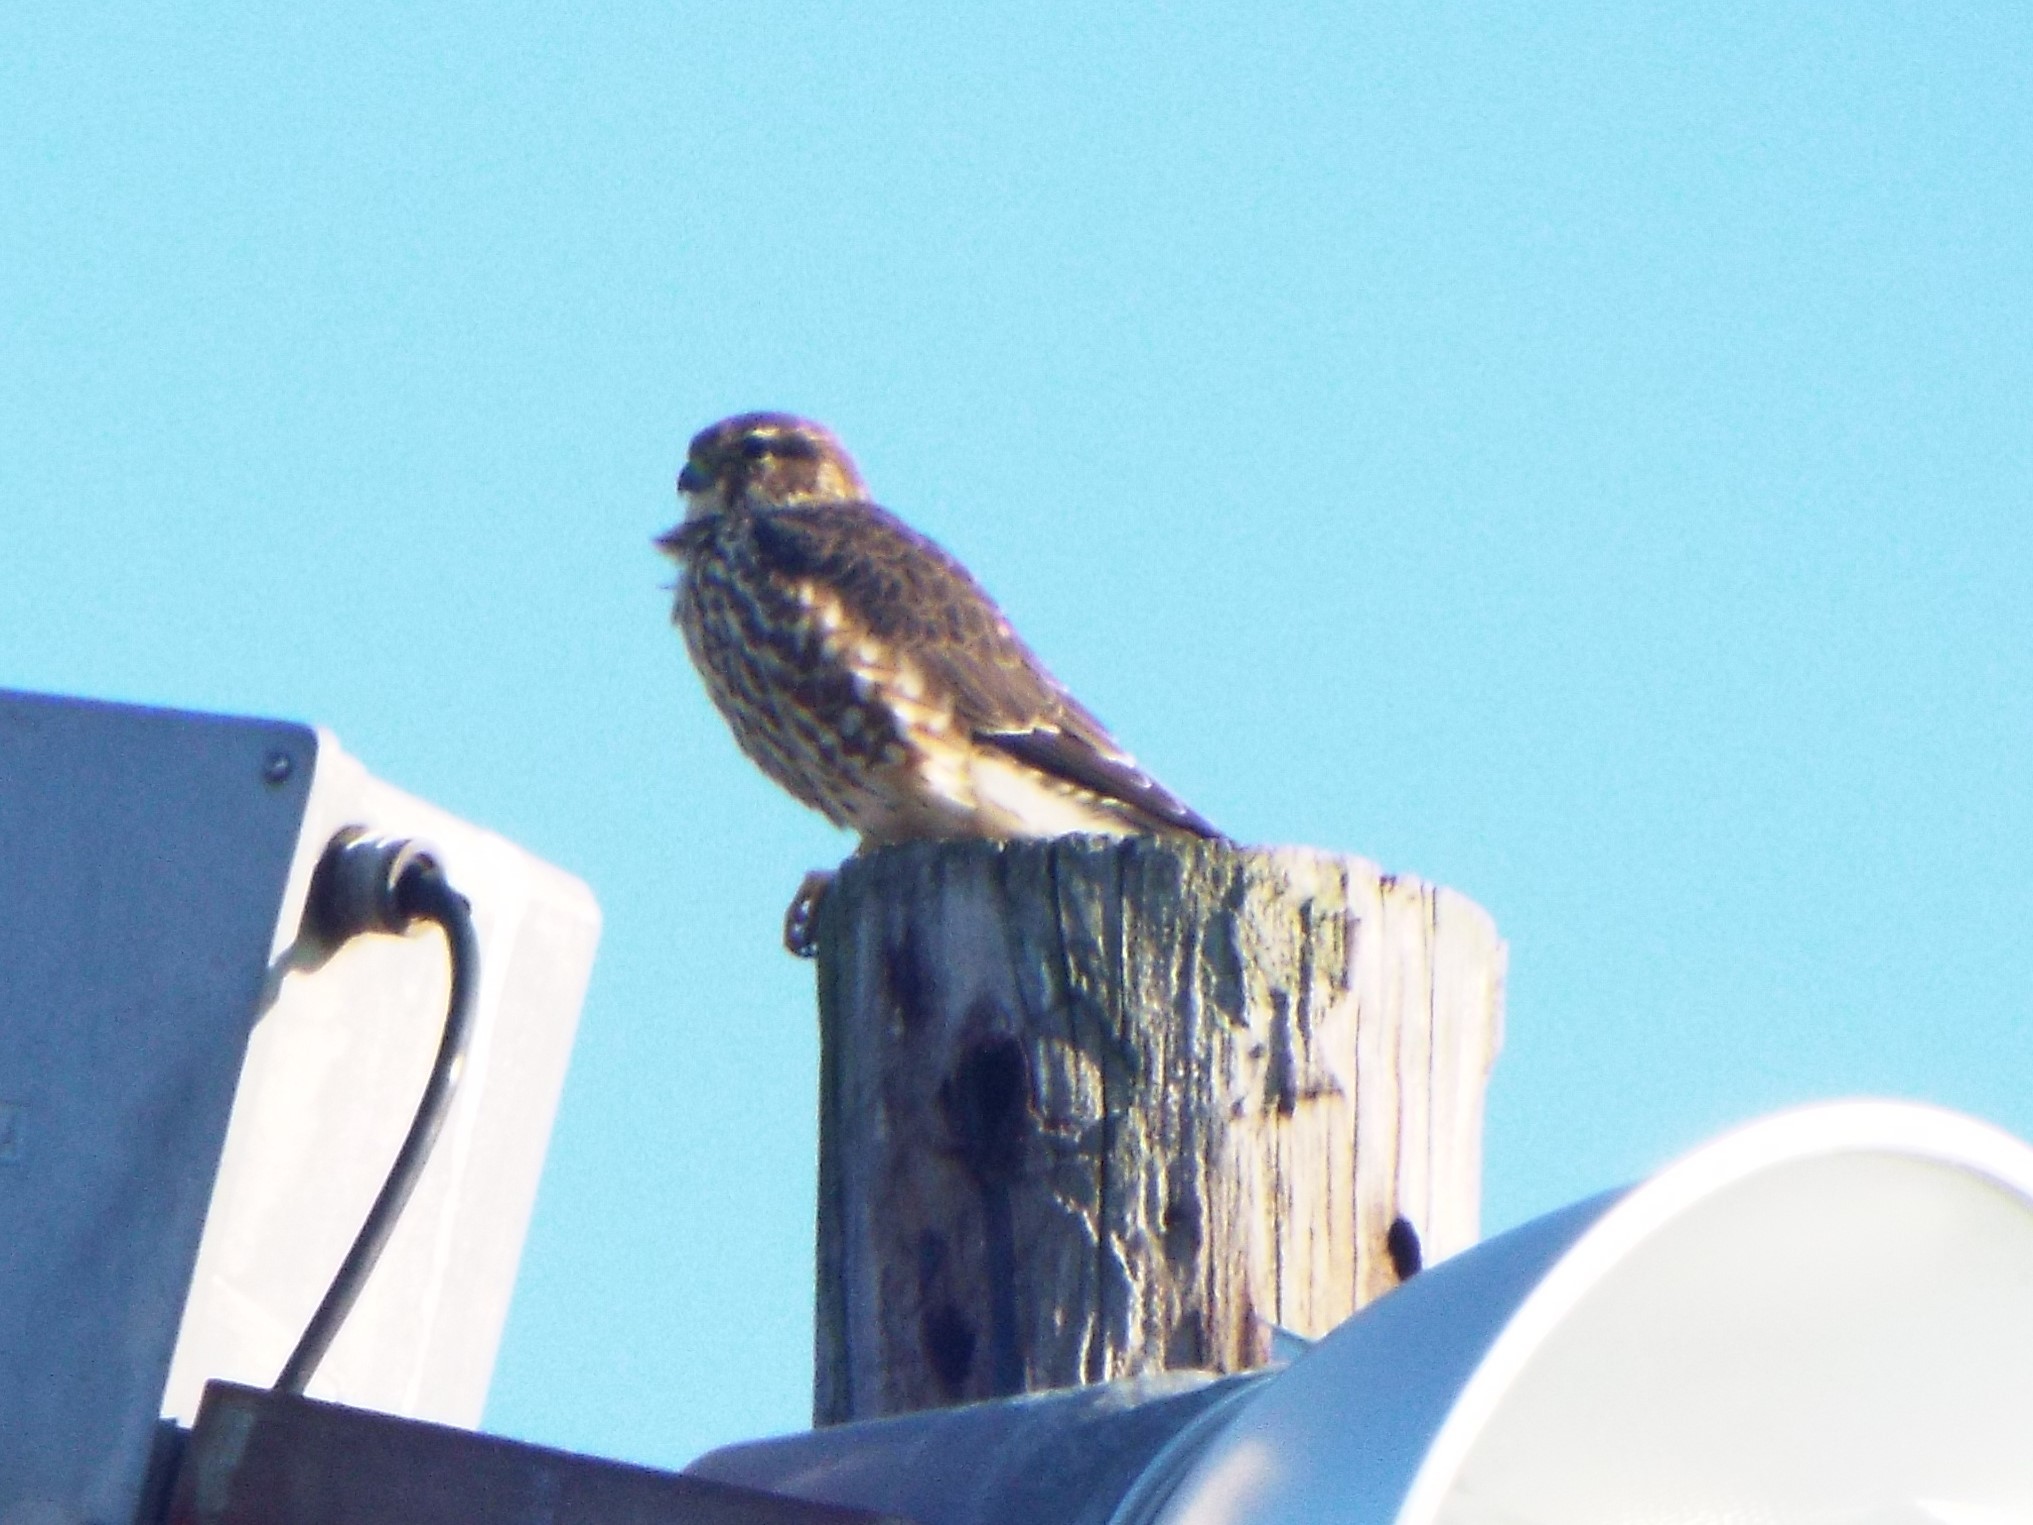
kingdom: Animalia
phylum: Chordata
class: Aves
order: Falconiformes
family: Falconidae
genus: Falco
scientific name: Falco columbarius
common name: Merlin
